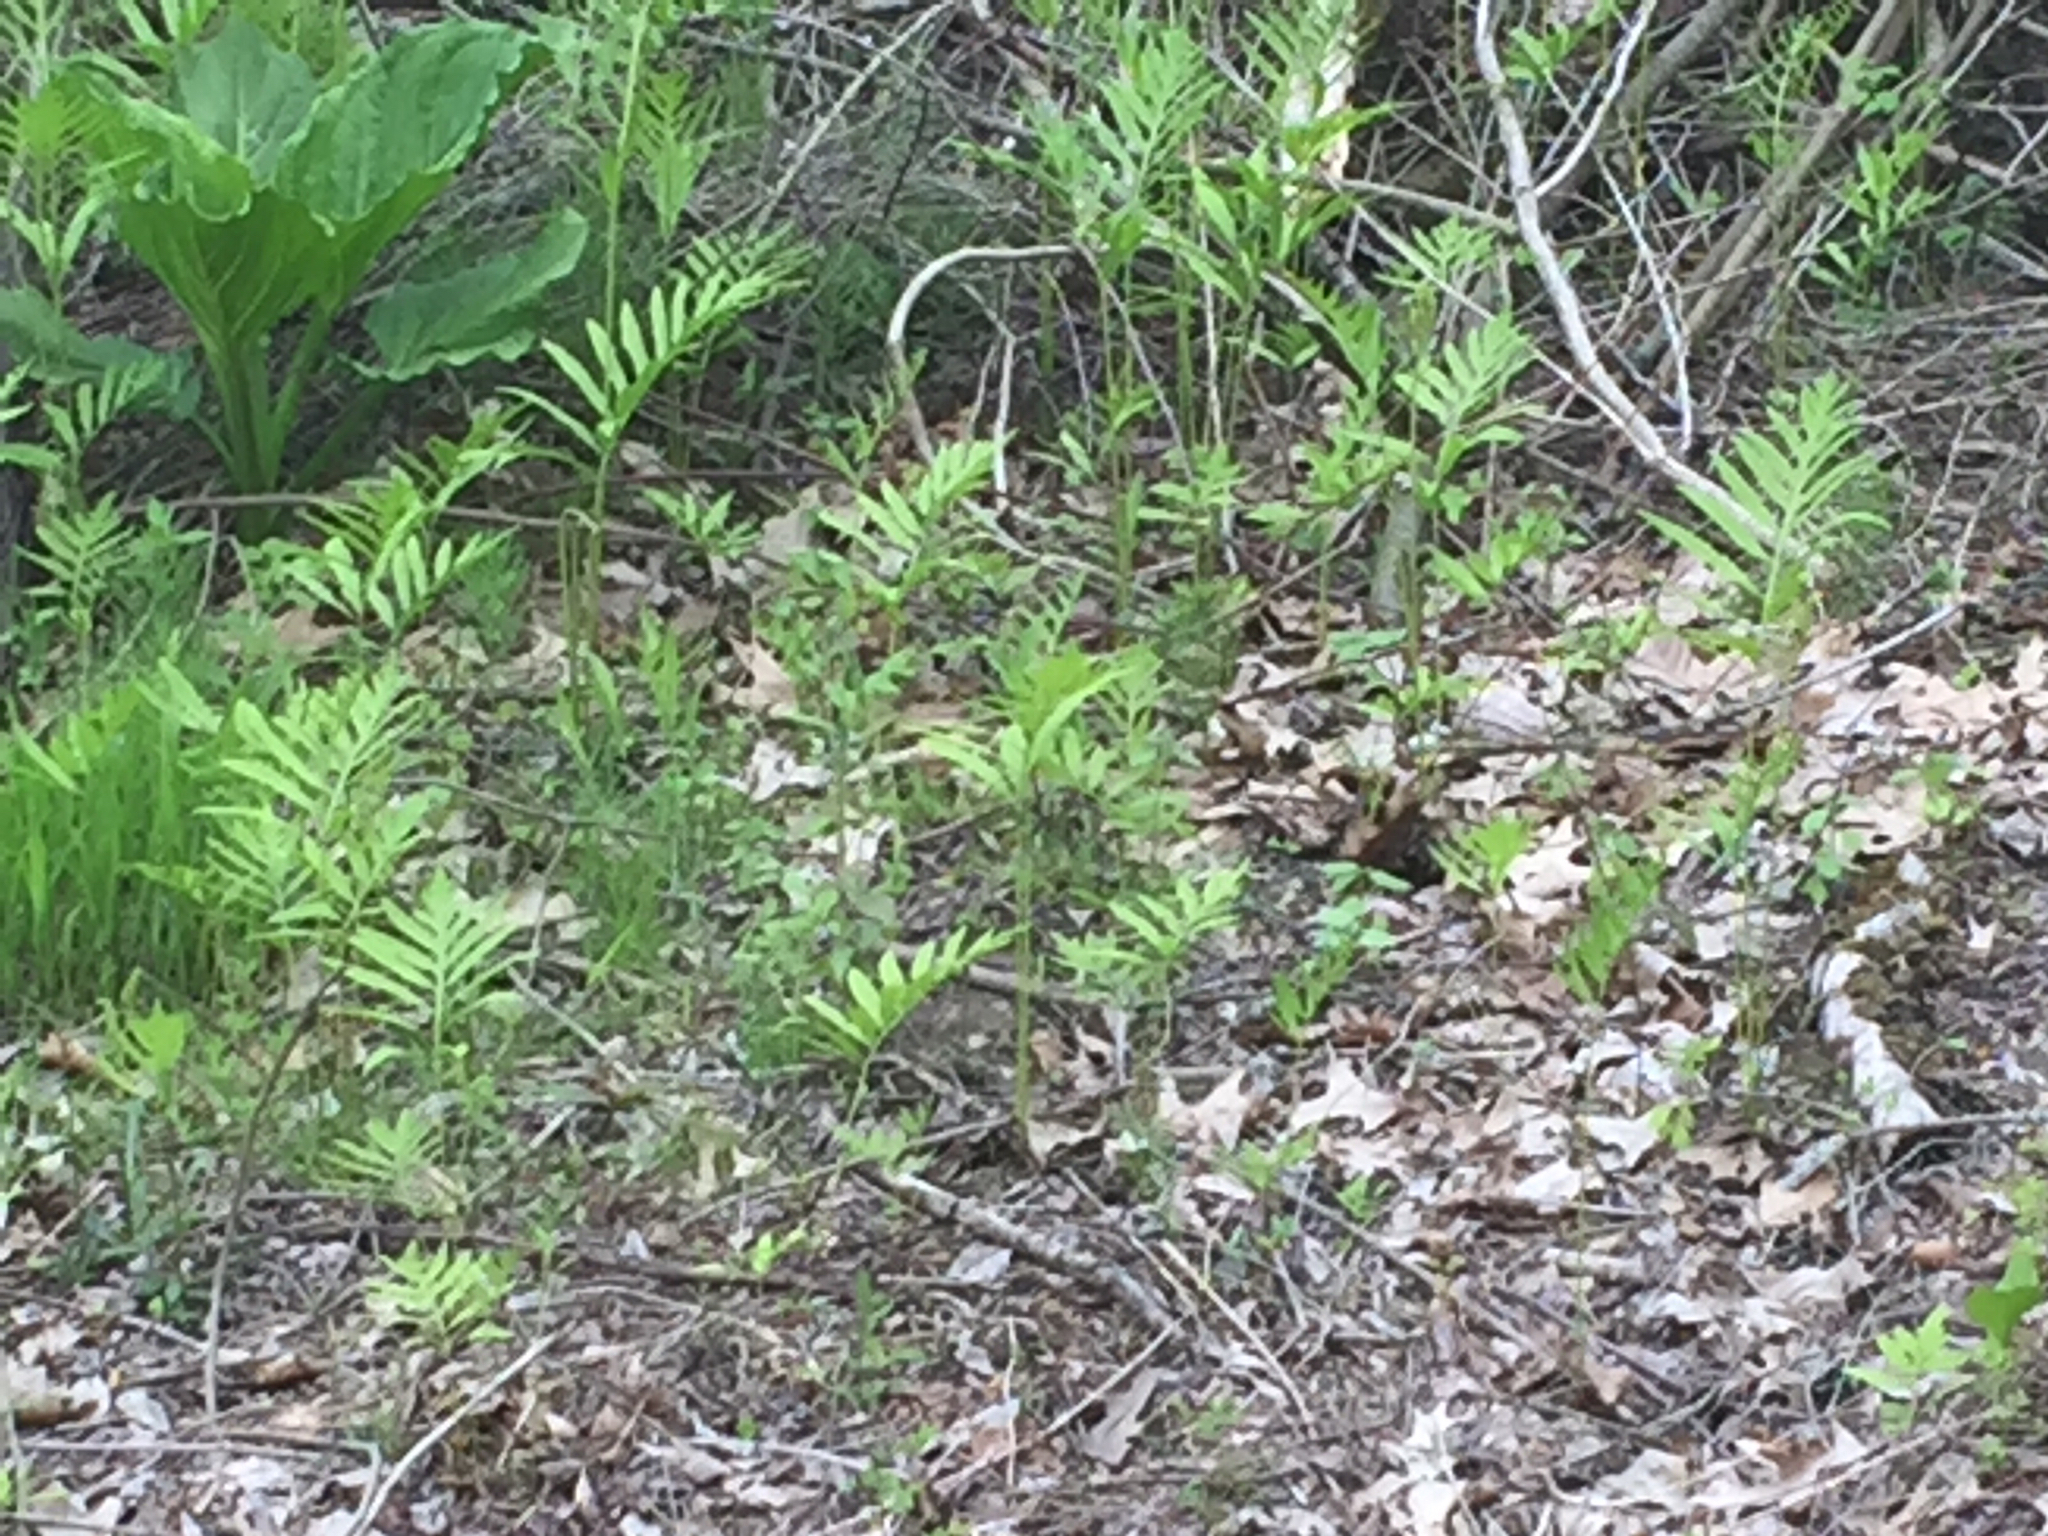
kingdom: Plantae
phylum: Tracheophyta
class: Polypodiopsida
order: Polypodiales
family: Onocleaceae
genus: Onoclea
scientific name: Onoclea sensibilis
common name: Sensitive fern
